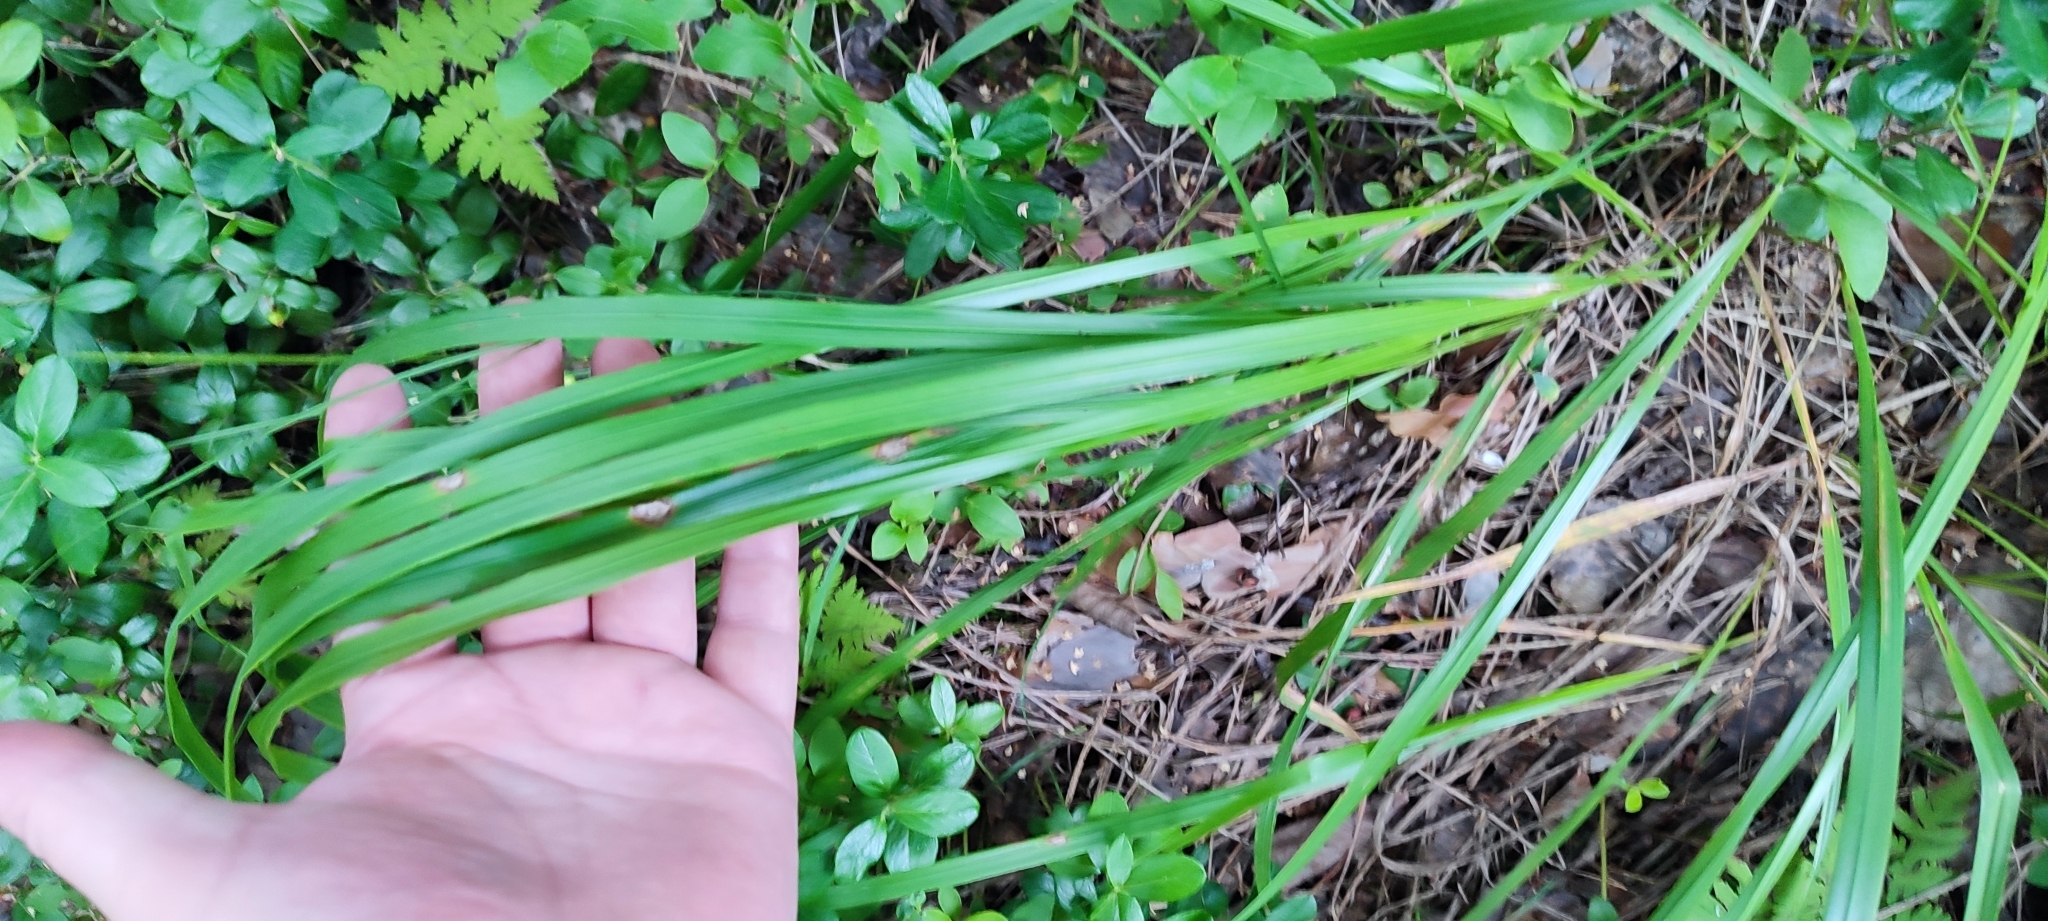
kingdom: Plantae
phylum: Tracheophyta
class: Liliopsida
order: Poales
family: Poaceae
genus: Calamagrostis
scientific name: Calamagrostis arundinacea
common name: Metskastik
